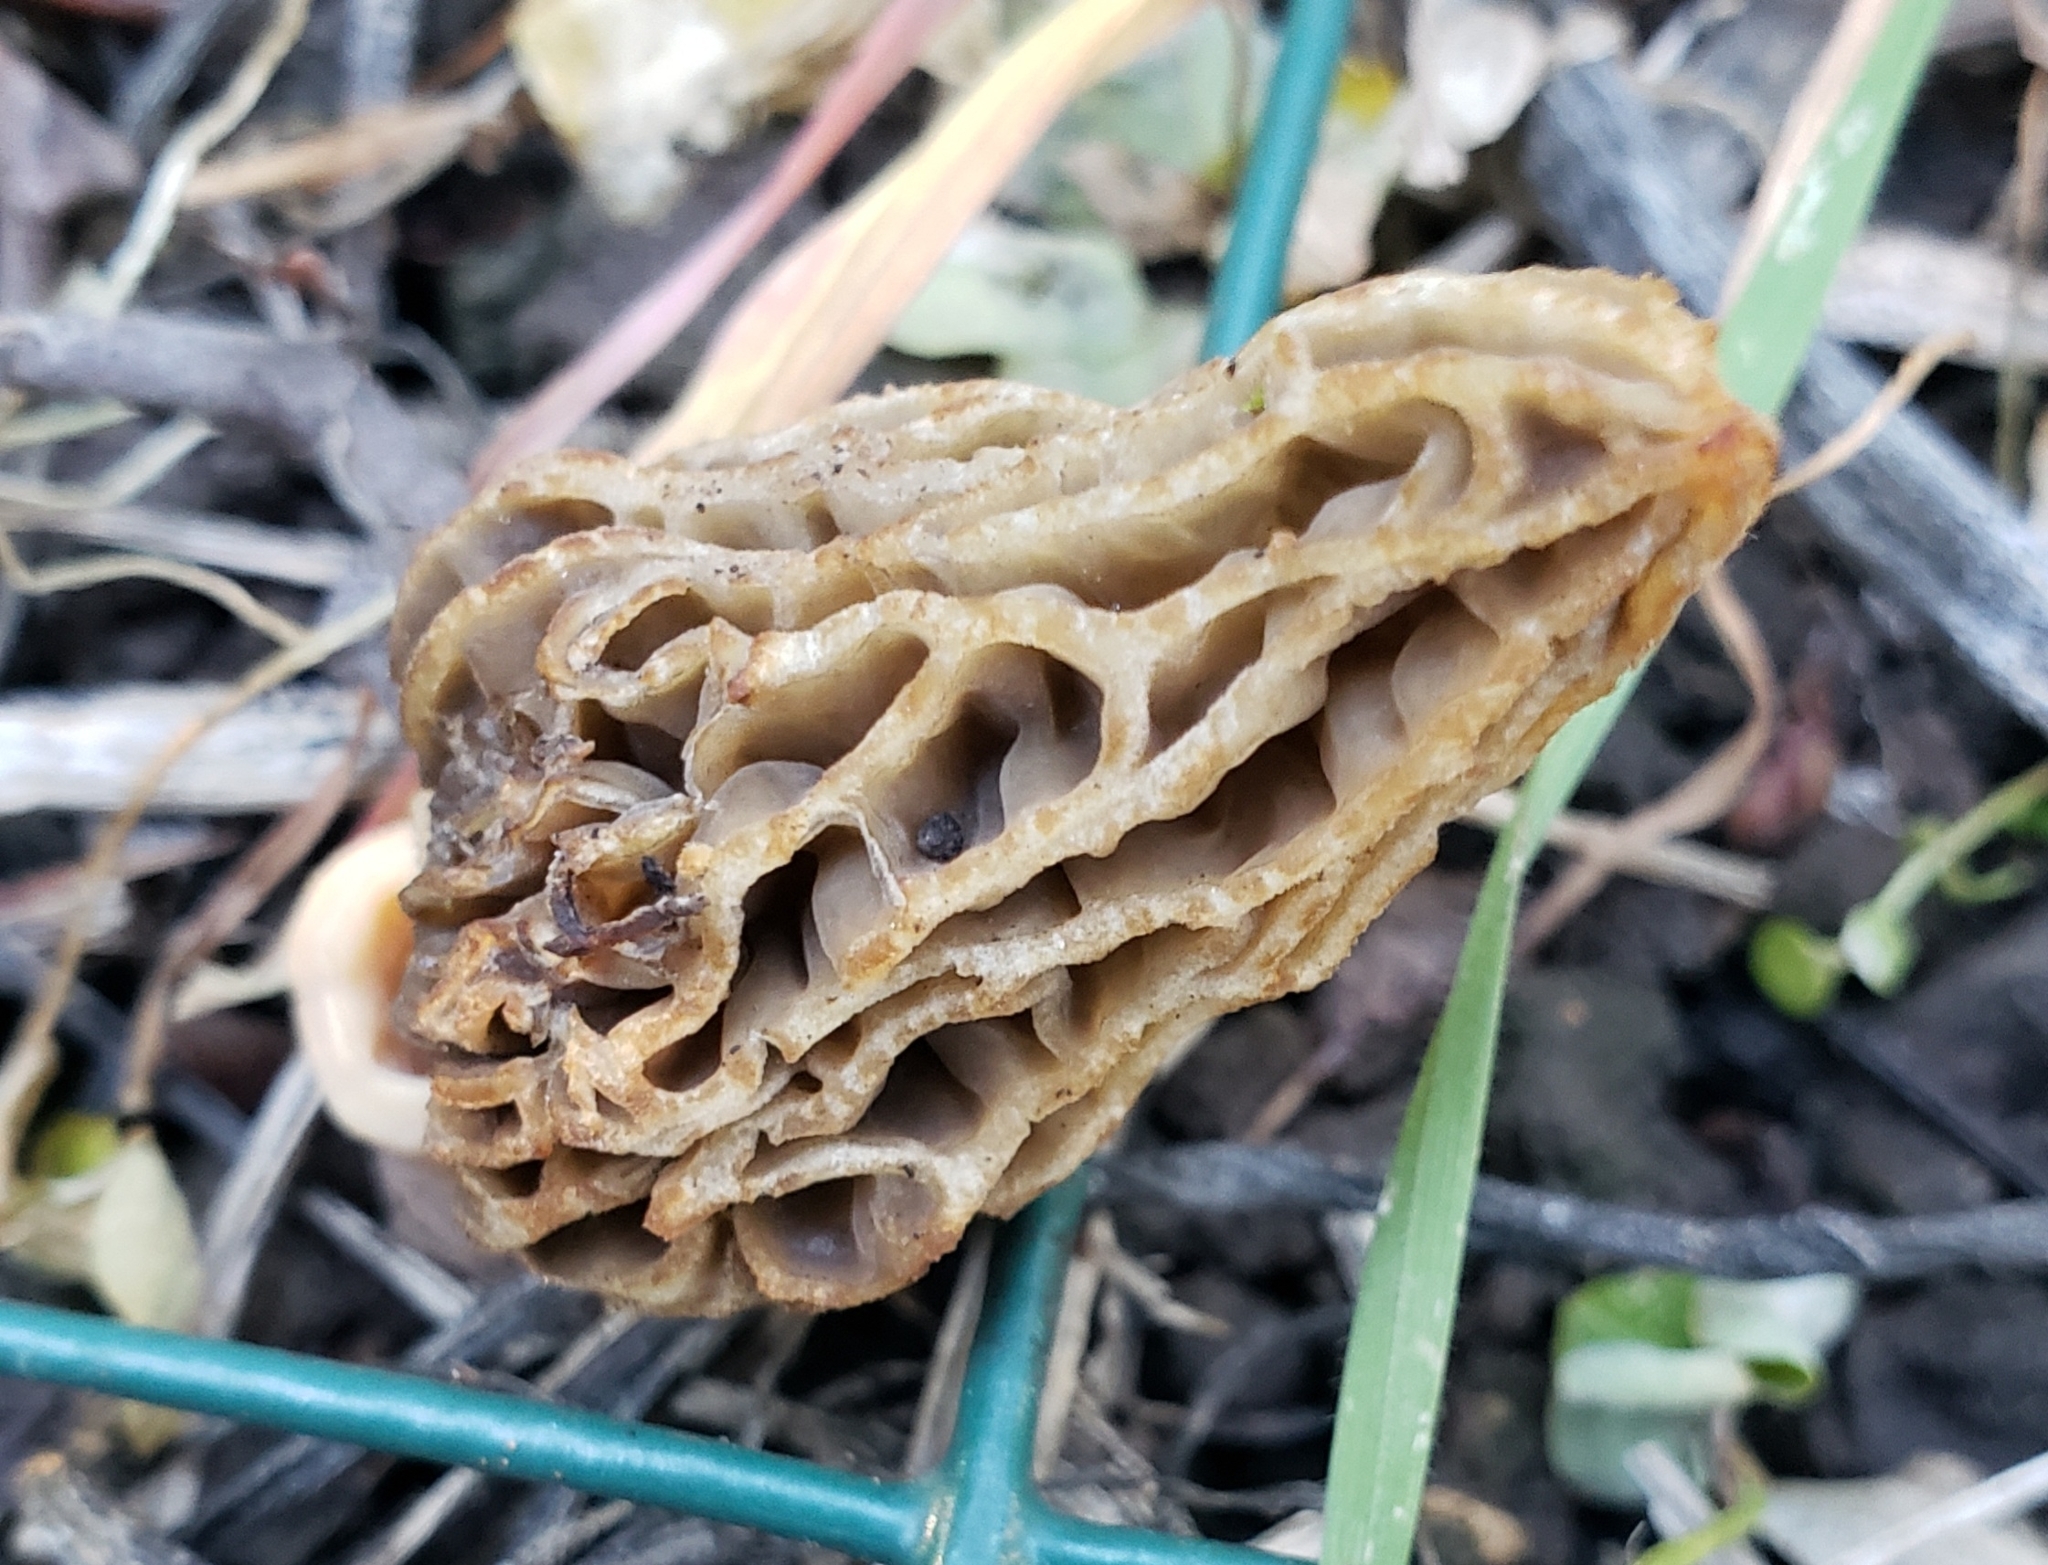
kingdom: Fungi
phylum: Ascomycota
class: Pezizomycetes
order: Pezizales
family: Morchellaceae
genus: Morchella
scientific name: Morchella rufobrunnea
